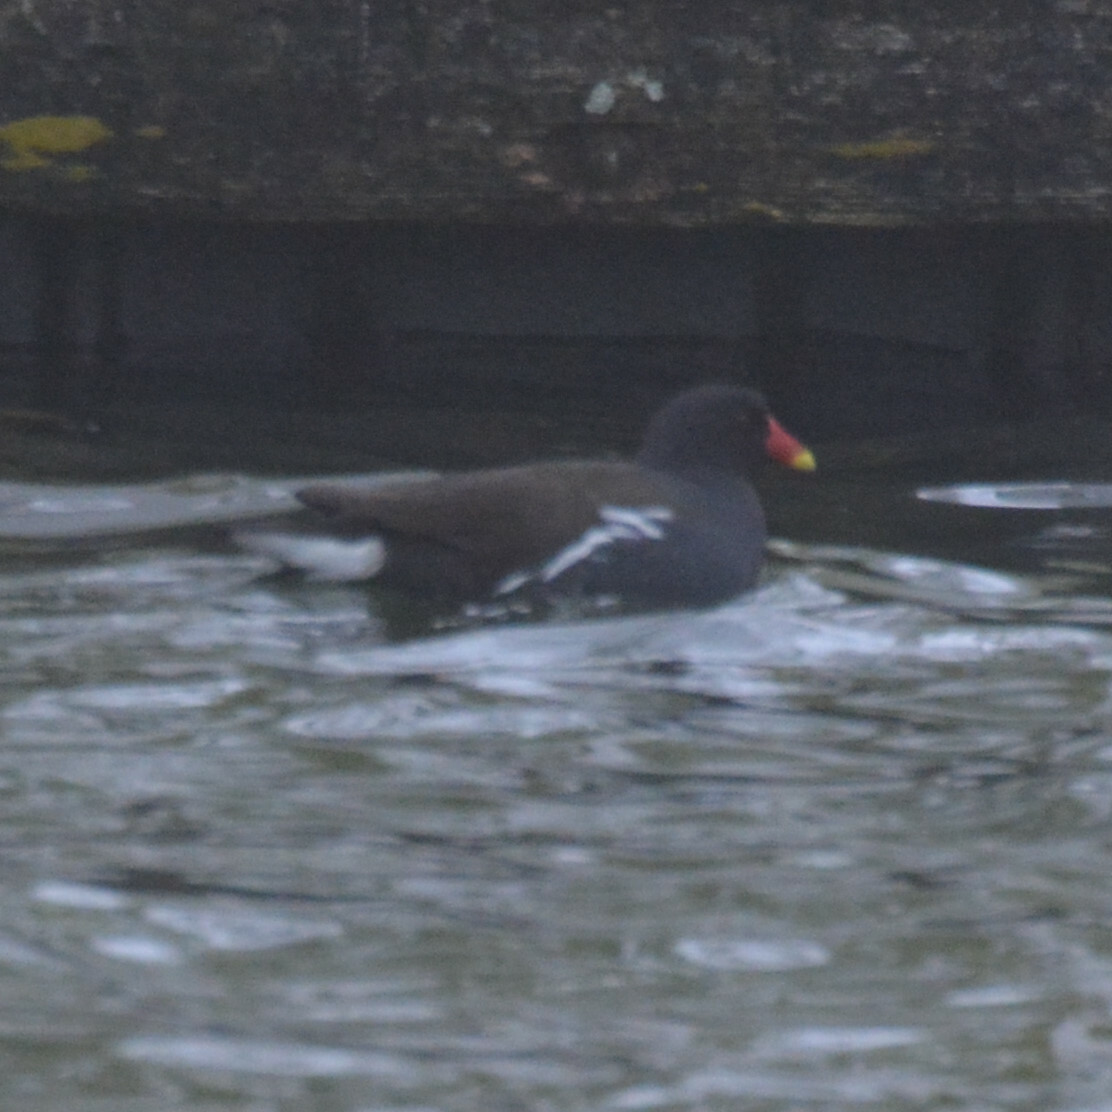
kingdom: Animalia
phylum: Chordata
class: Aves
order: Gruiformes
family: Rallidae
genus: Gallinula
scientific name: Gallinula chloropus
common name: Common moorhen
